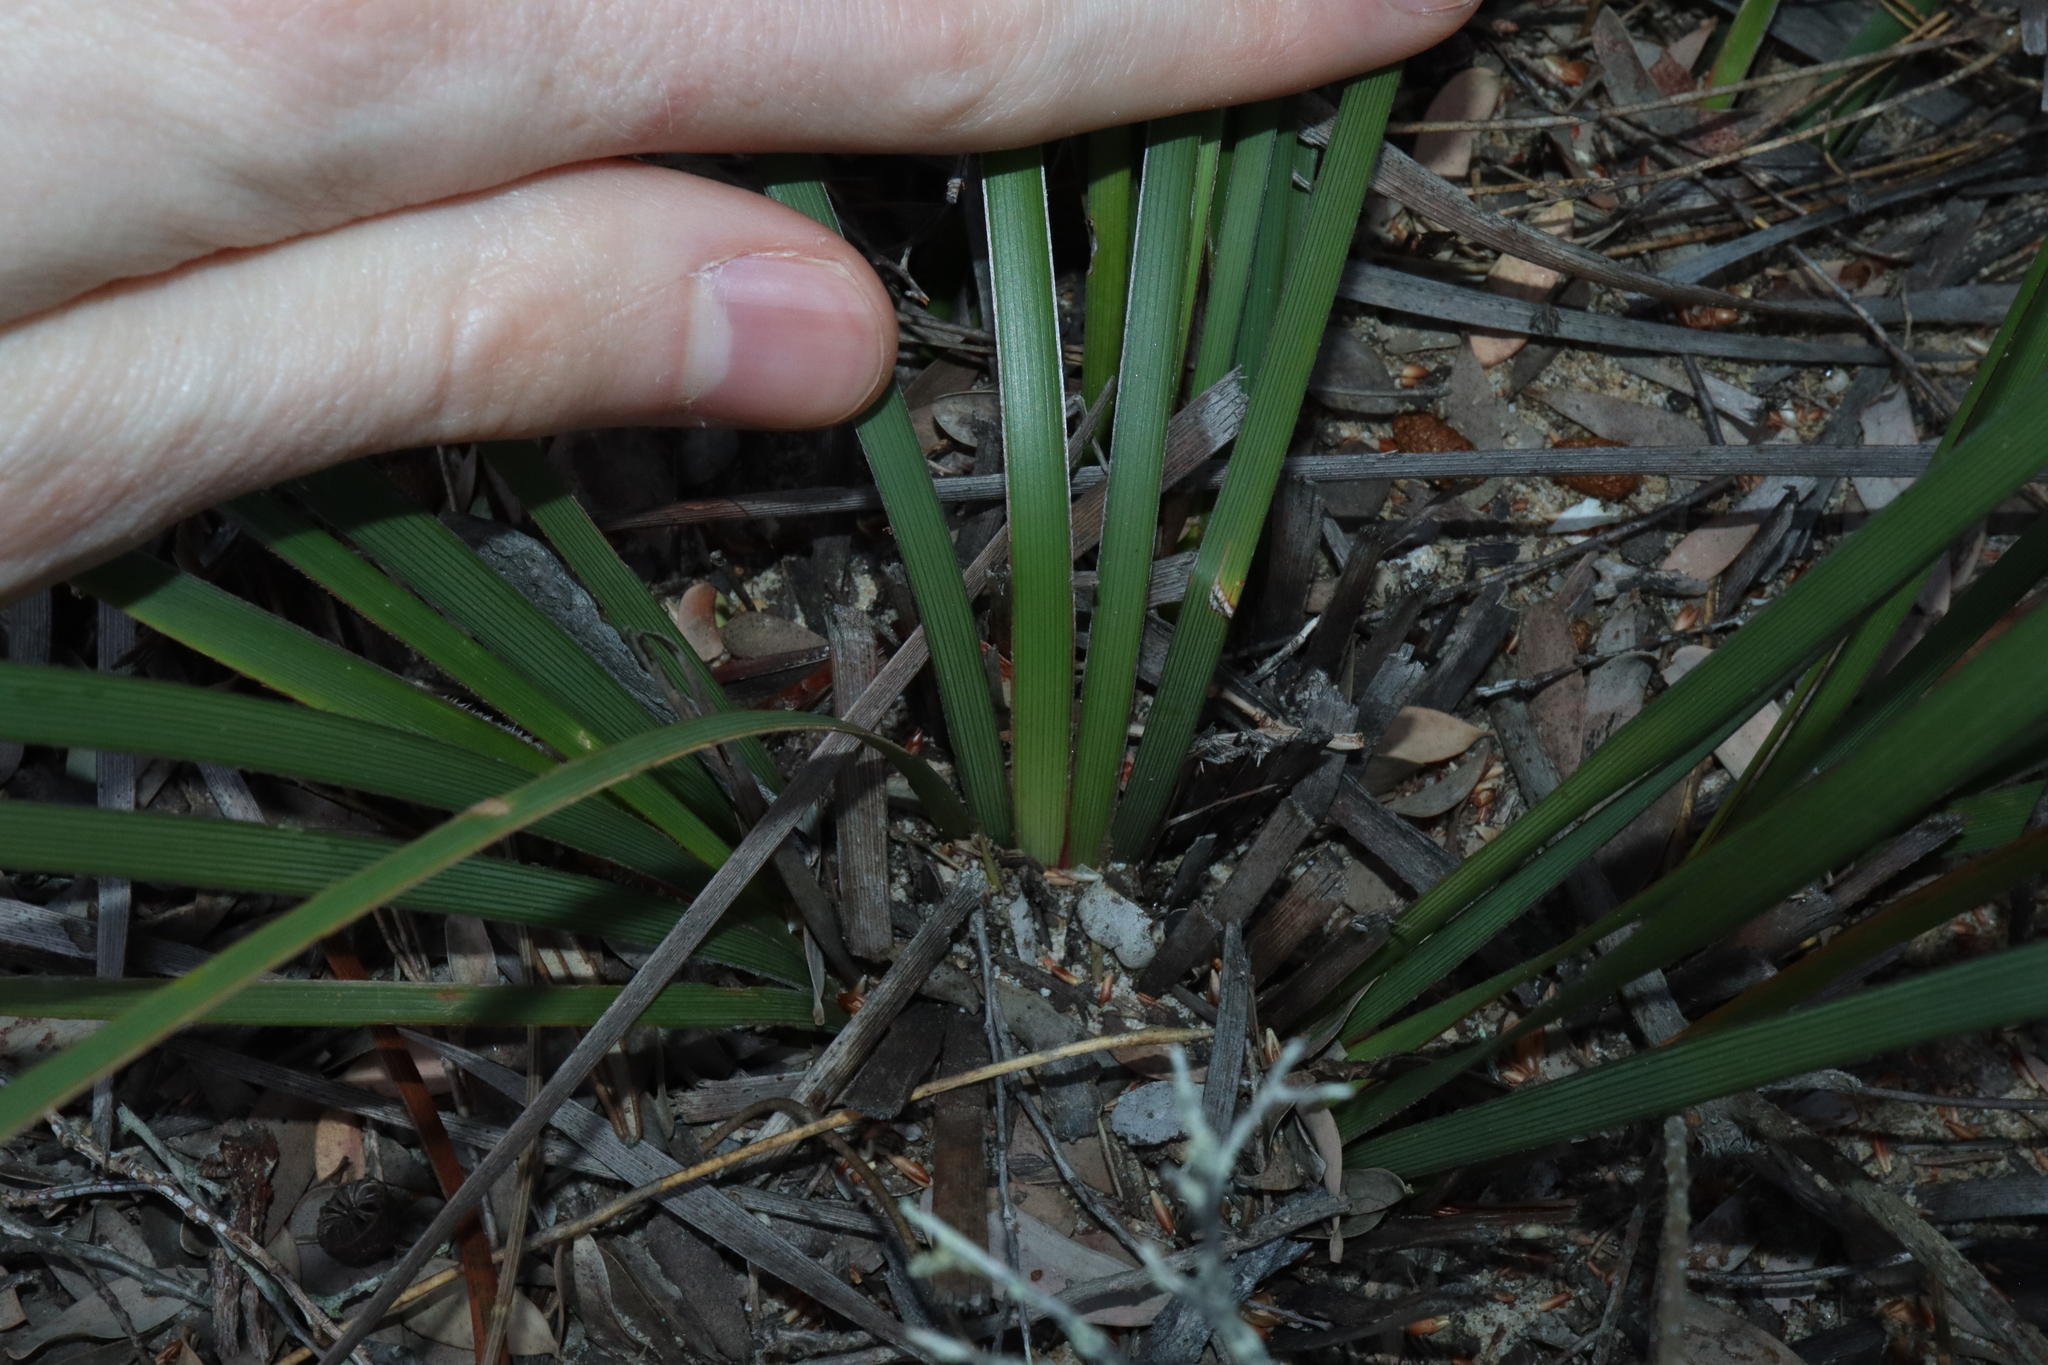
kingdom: Plantae
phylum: Tracheophyta
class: Liliopsida
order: Asparagales
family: Iridaceae
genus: Patersonia
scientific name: Patersonia sericea
